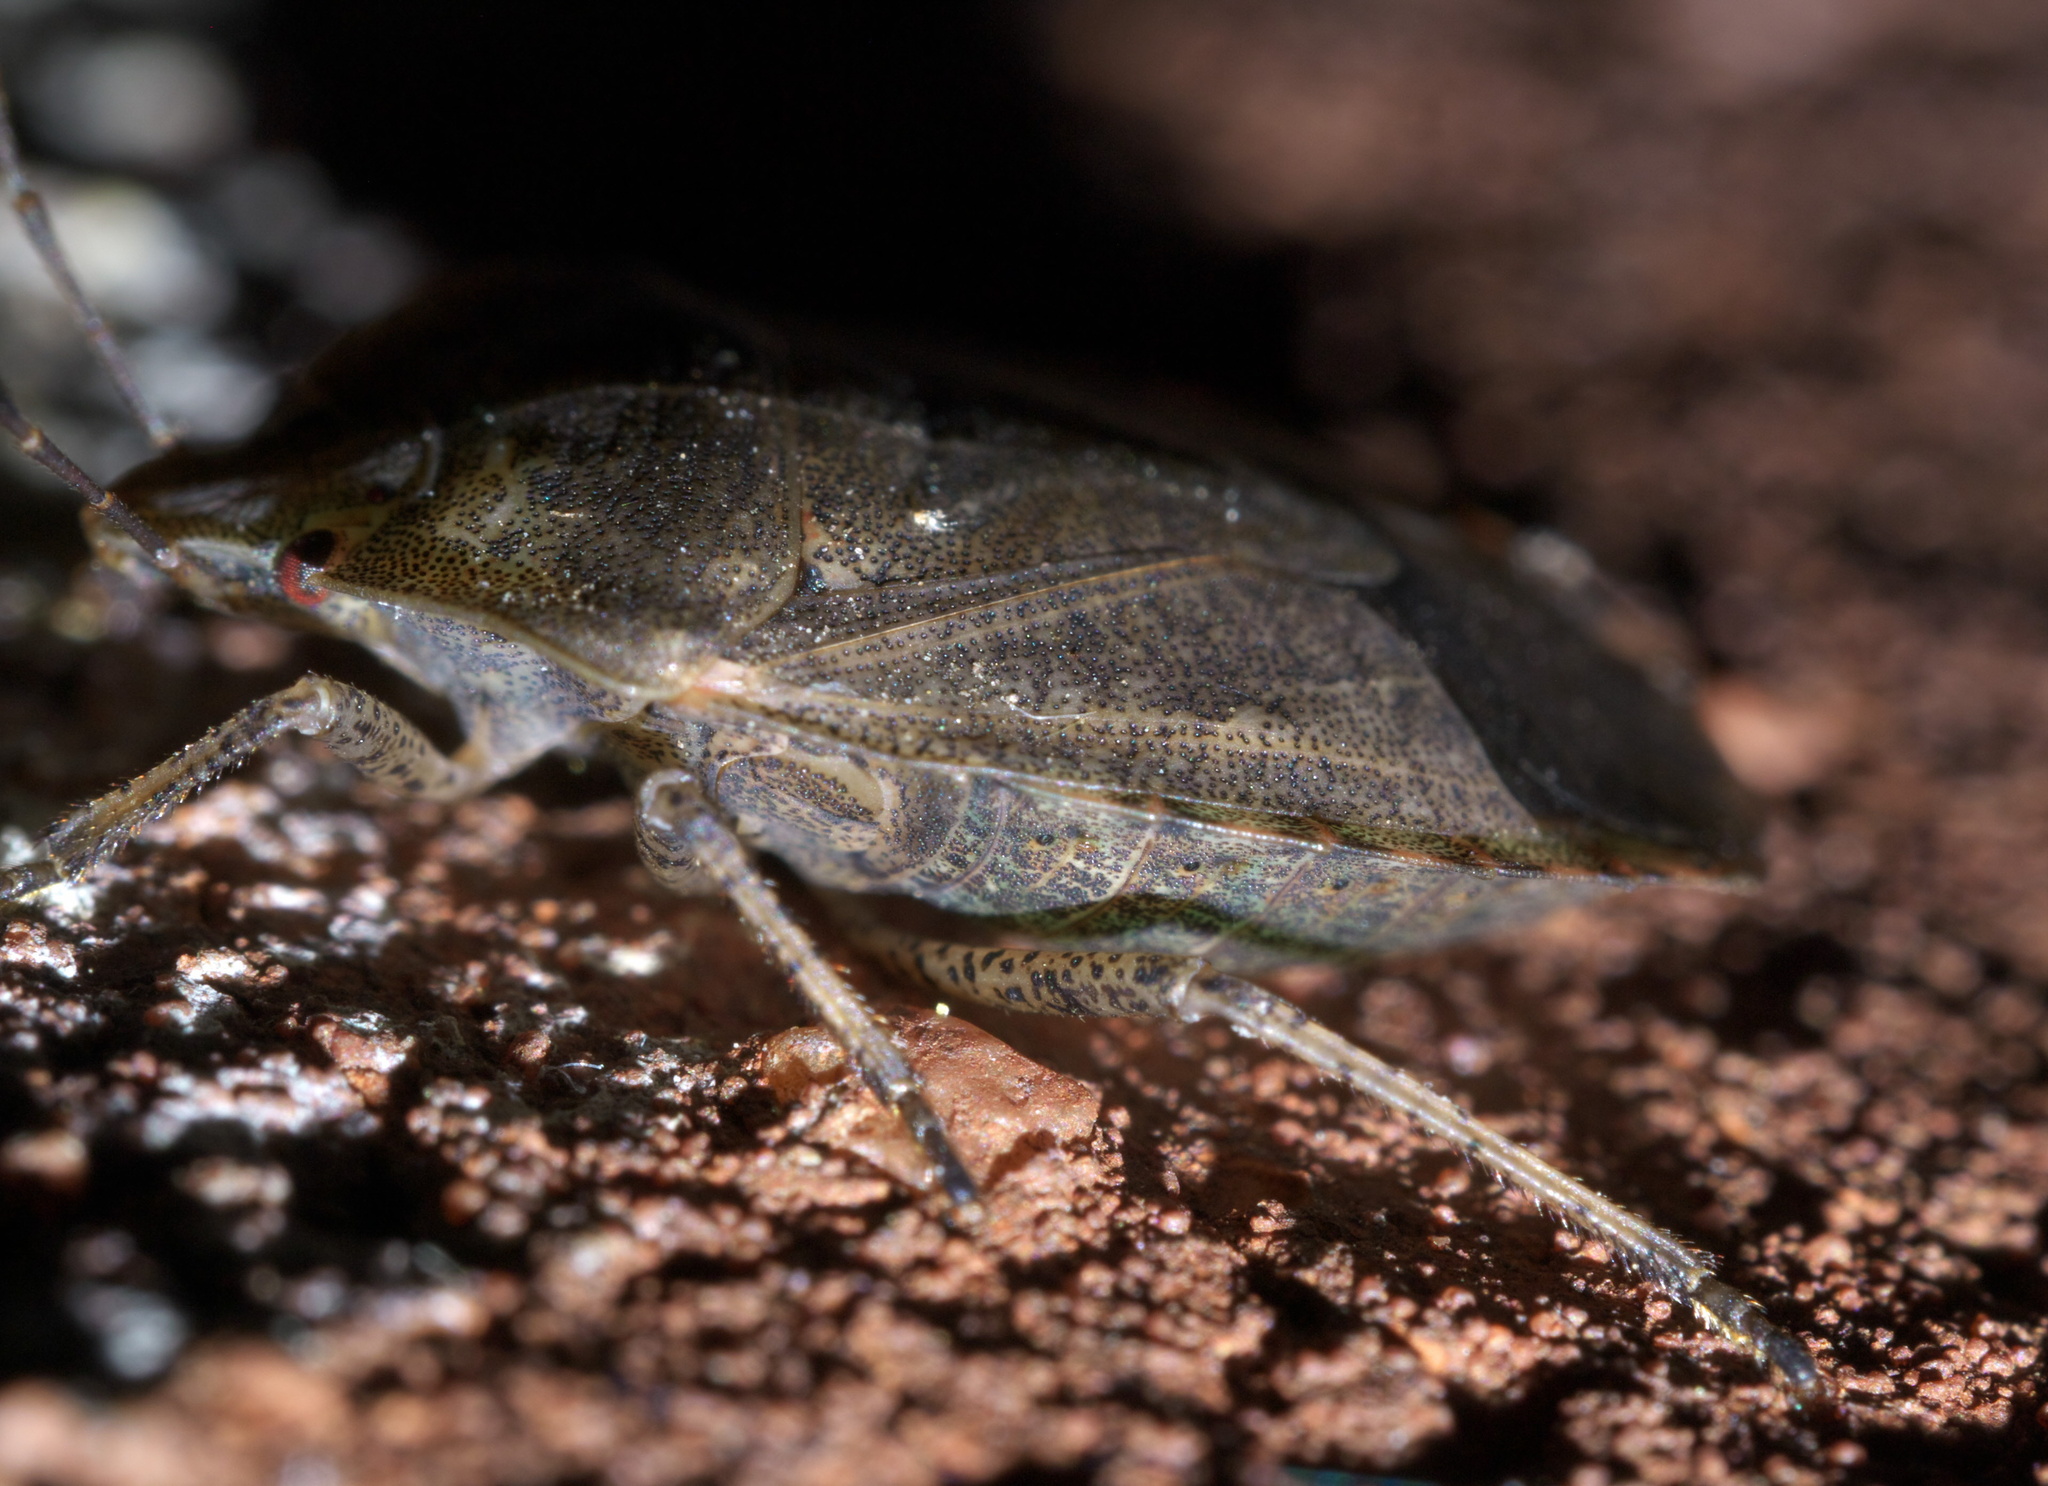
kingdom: Animalia
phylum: Arthropoda
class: Insecta
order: Hemiptera
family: Pentatomidae
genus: Menecles
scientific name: Menecles insertus
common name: Elf shoe stink bug
